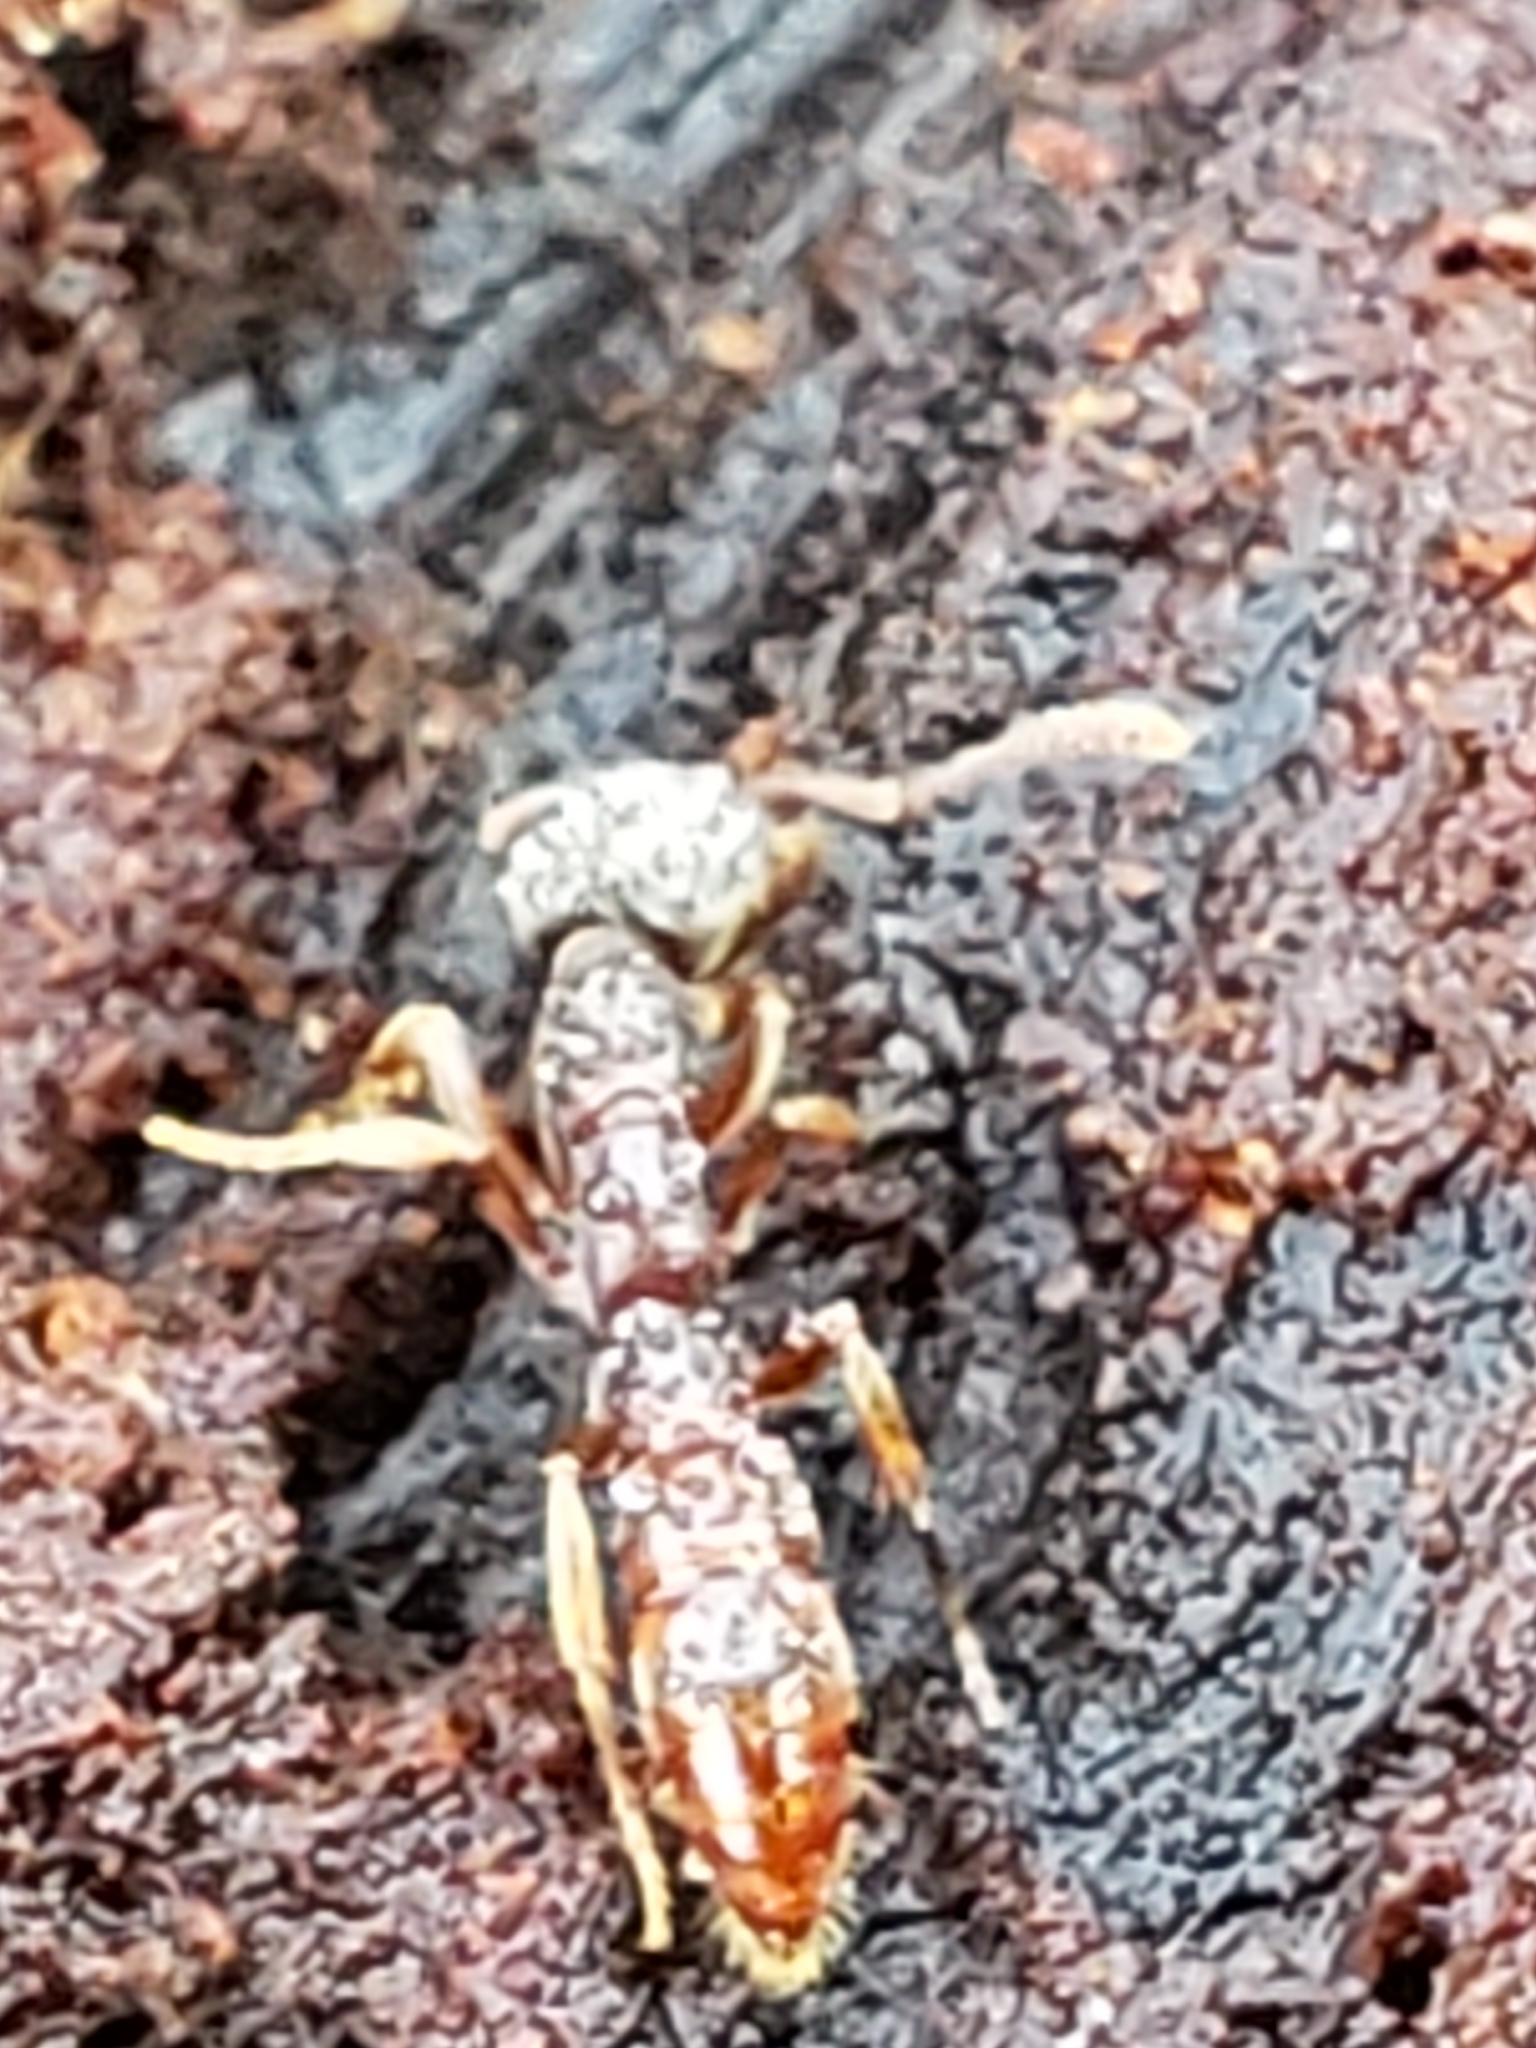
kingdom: Animalia
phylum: Arthropoda
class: Insecta
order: Hymenoptera
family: Formicidae
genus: Stigmatomma
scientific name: Stigmatomma pallipes
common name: Vampire ant
